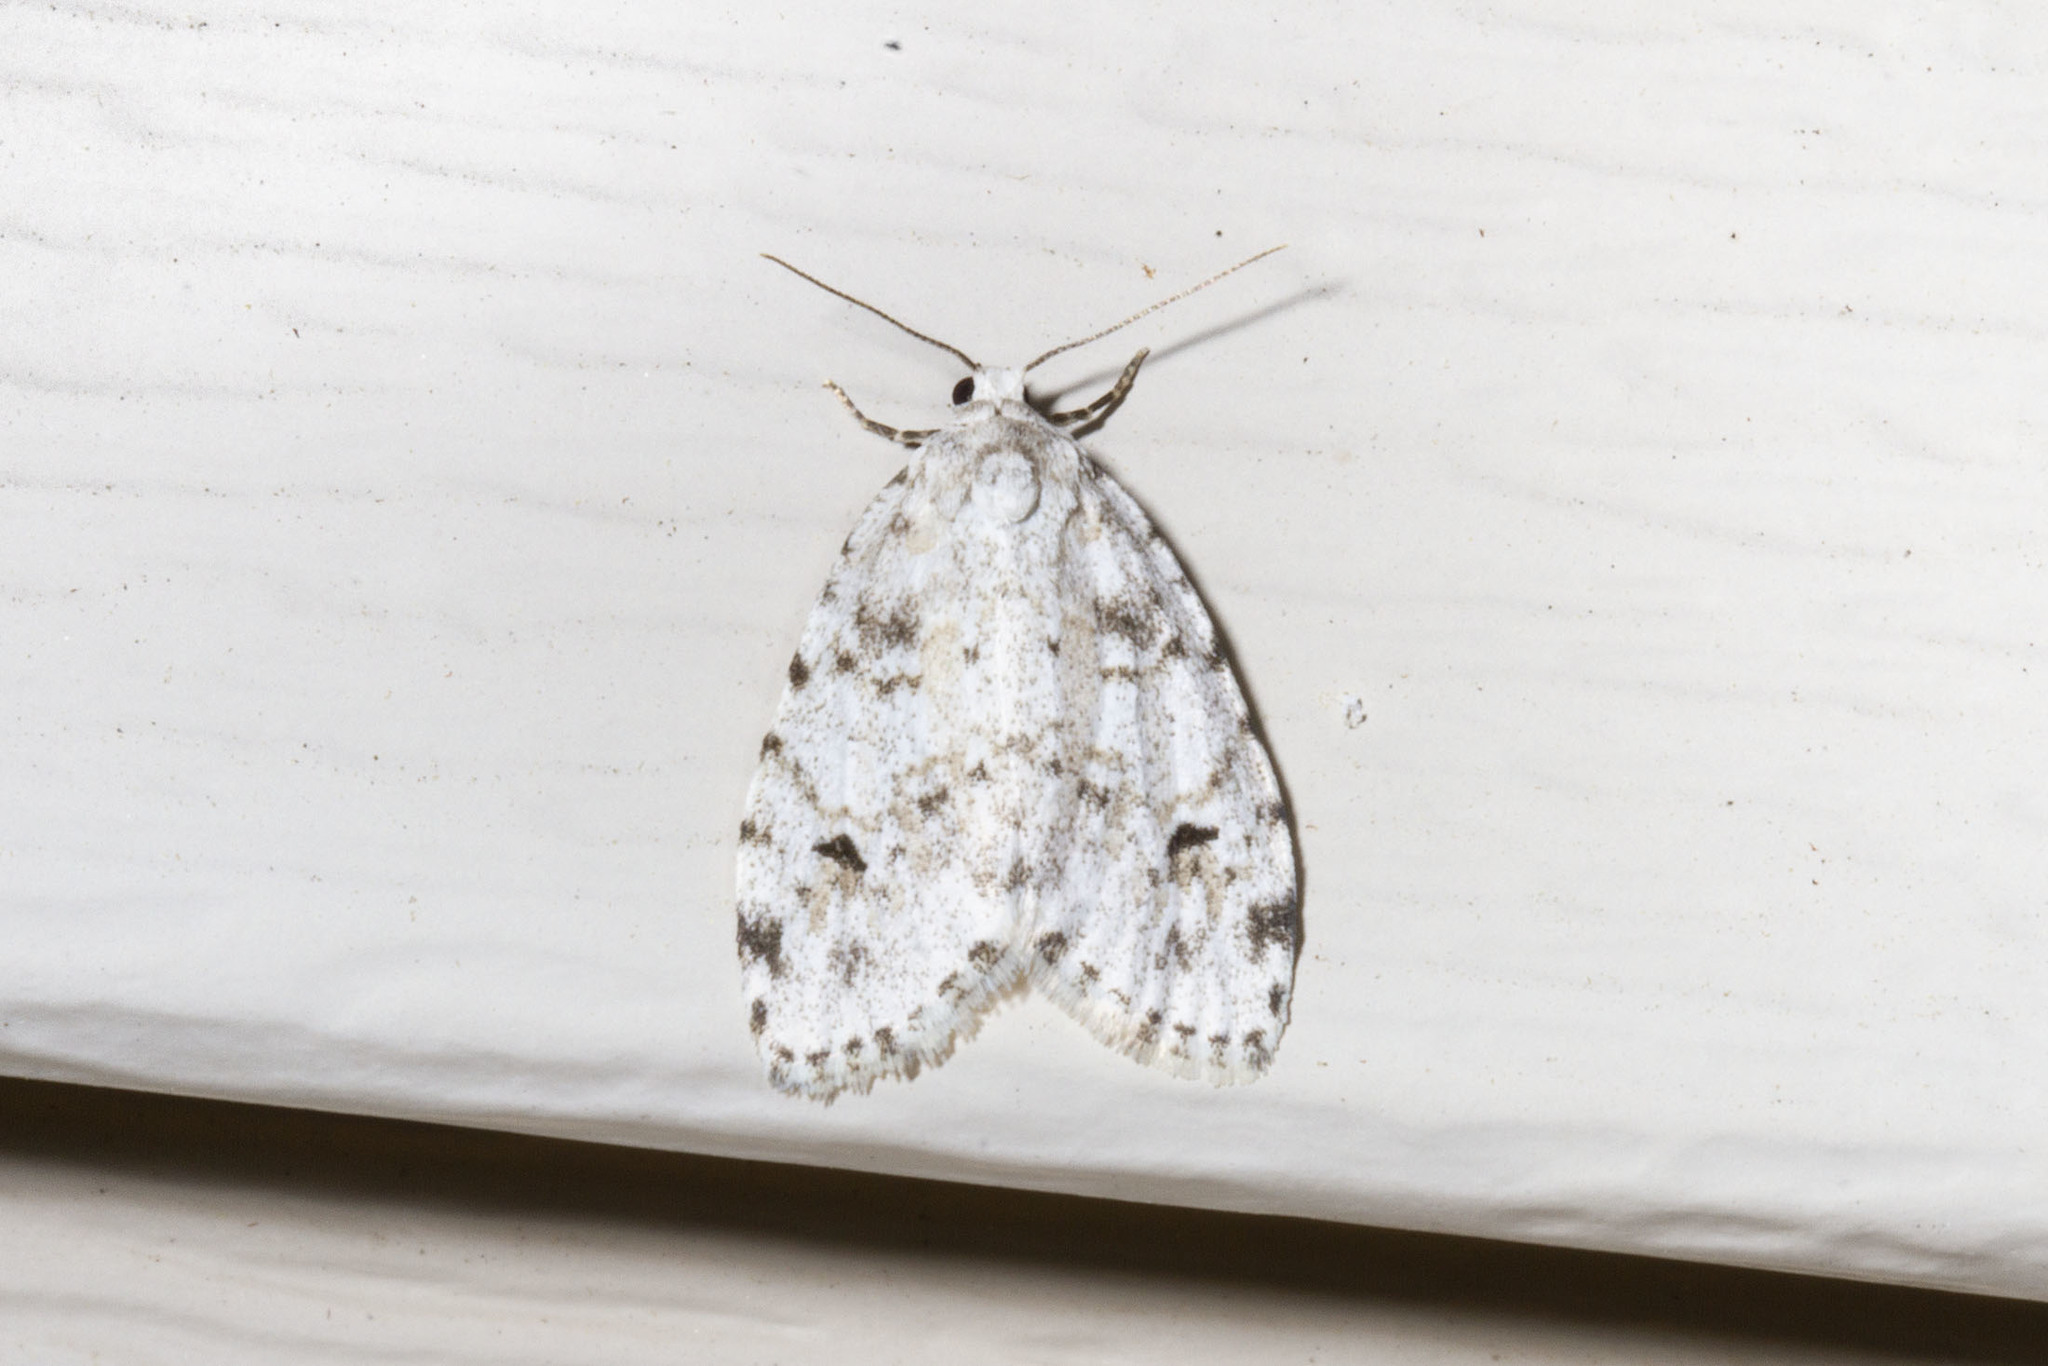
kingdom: Animalia
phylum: Arthropoda
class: Insecta
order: Lepidoptera
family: Erebidae
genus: Clemensia
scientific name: Clemensia albata
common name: Little white lichen moth
